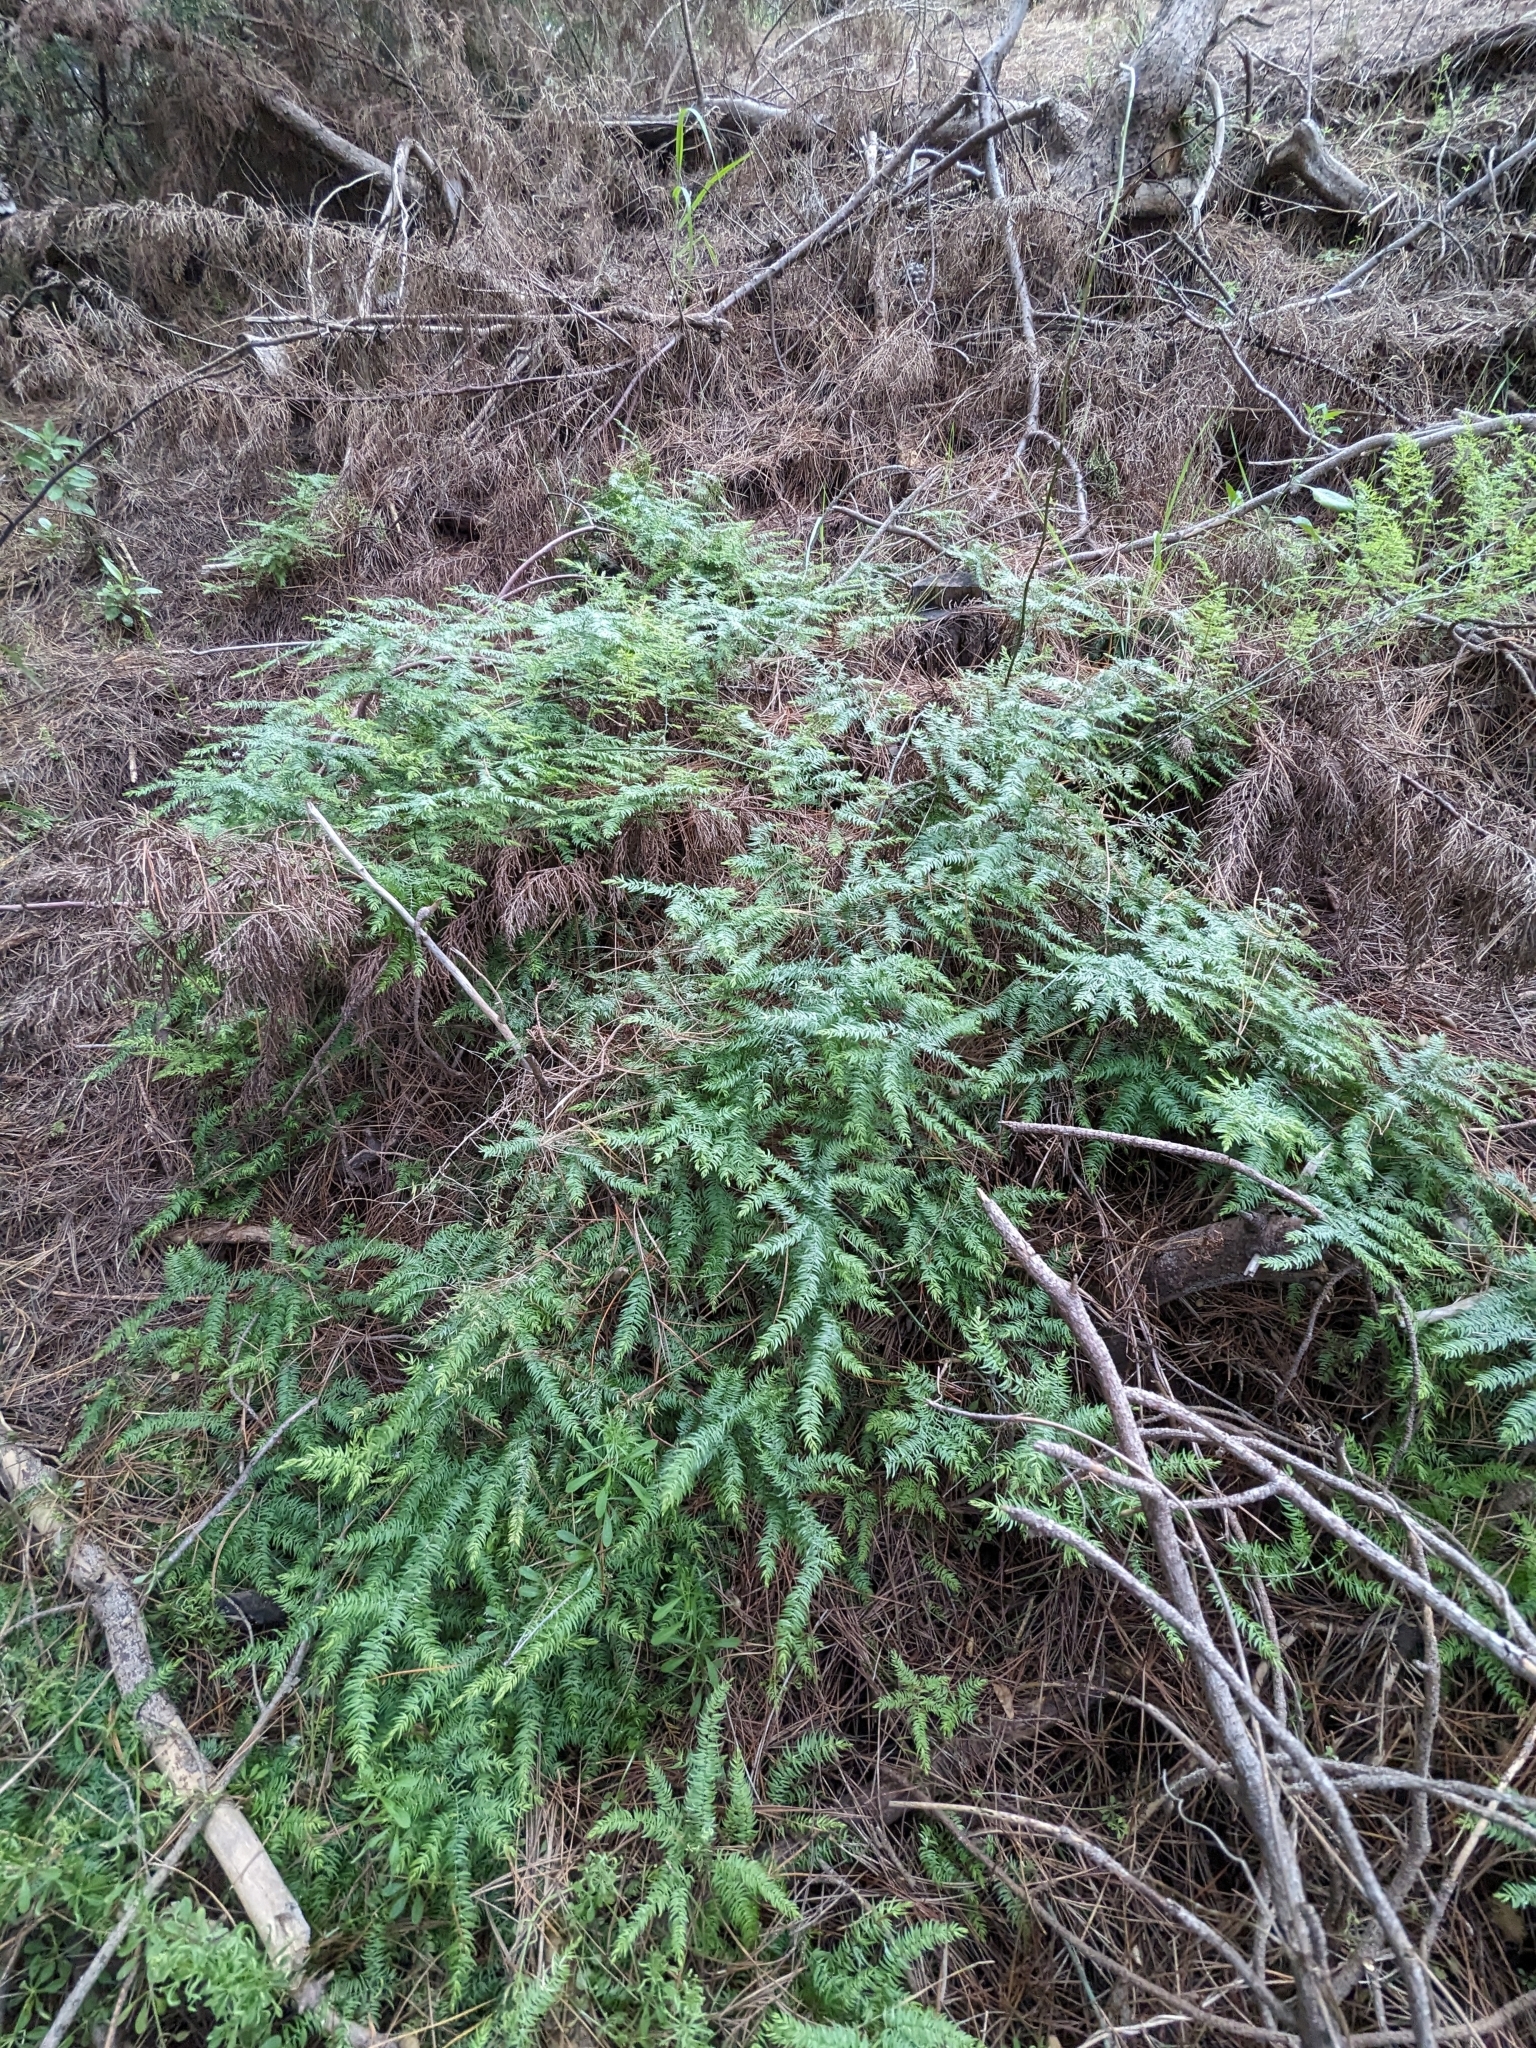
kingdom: Plantae
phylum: Tracheophyta
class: Liliopsida
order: Asparagales
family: Asparagaceae
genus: Asparagus
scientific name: Asparagus scandens
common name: Asparagus-fern
